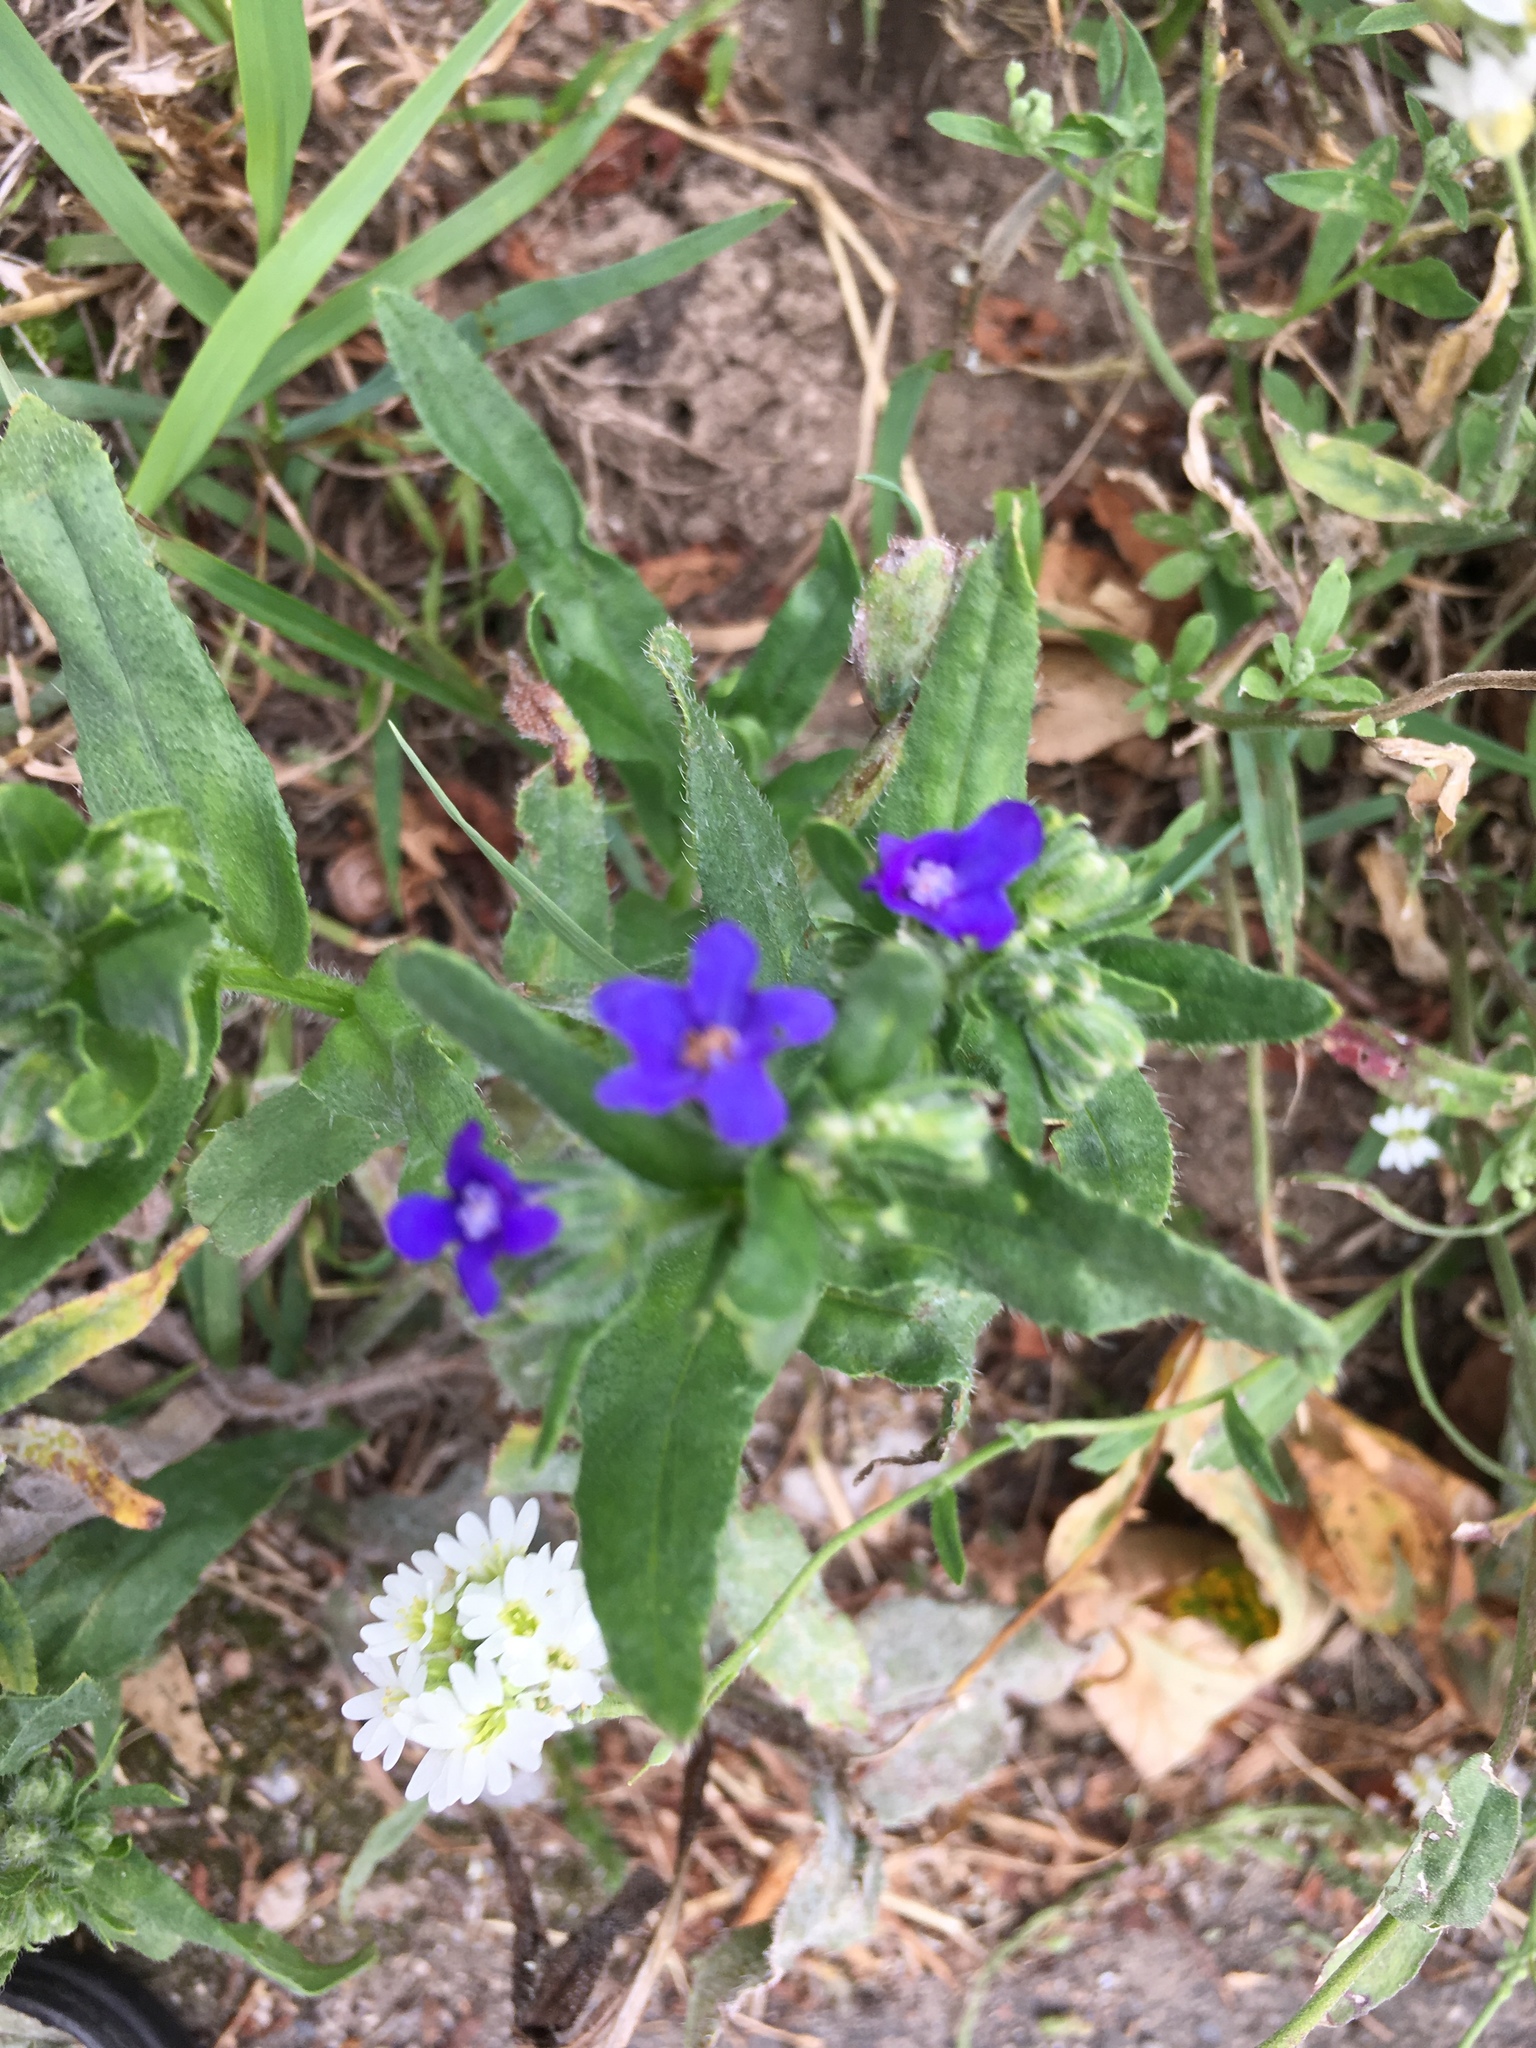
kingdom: Plantae
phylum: Tracheophyta
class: Magnoliopsida
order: Boraginales
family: Boraginaceae
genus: Anchusa
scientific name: Anchusa officinalis
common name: Alkanet
